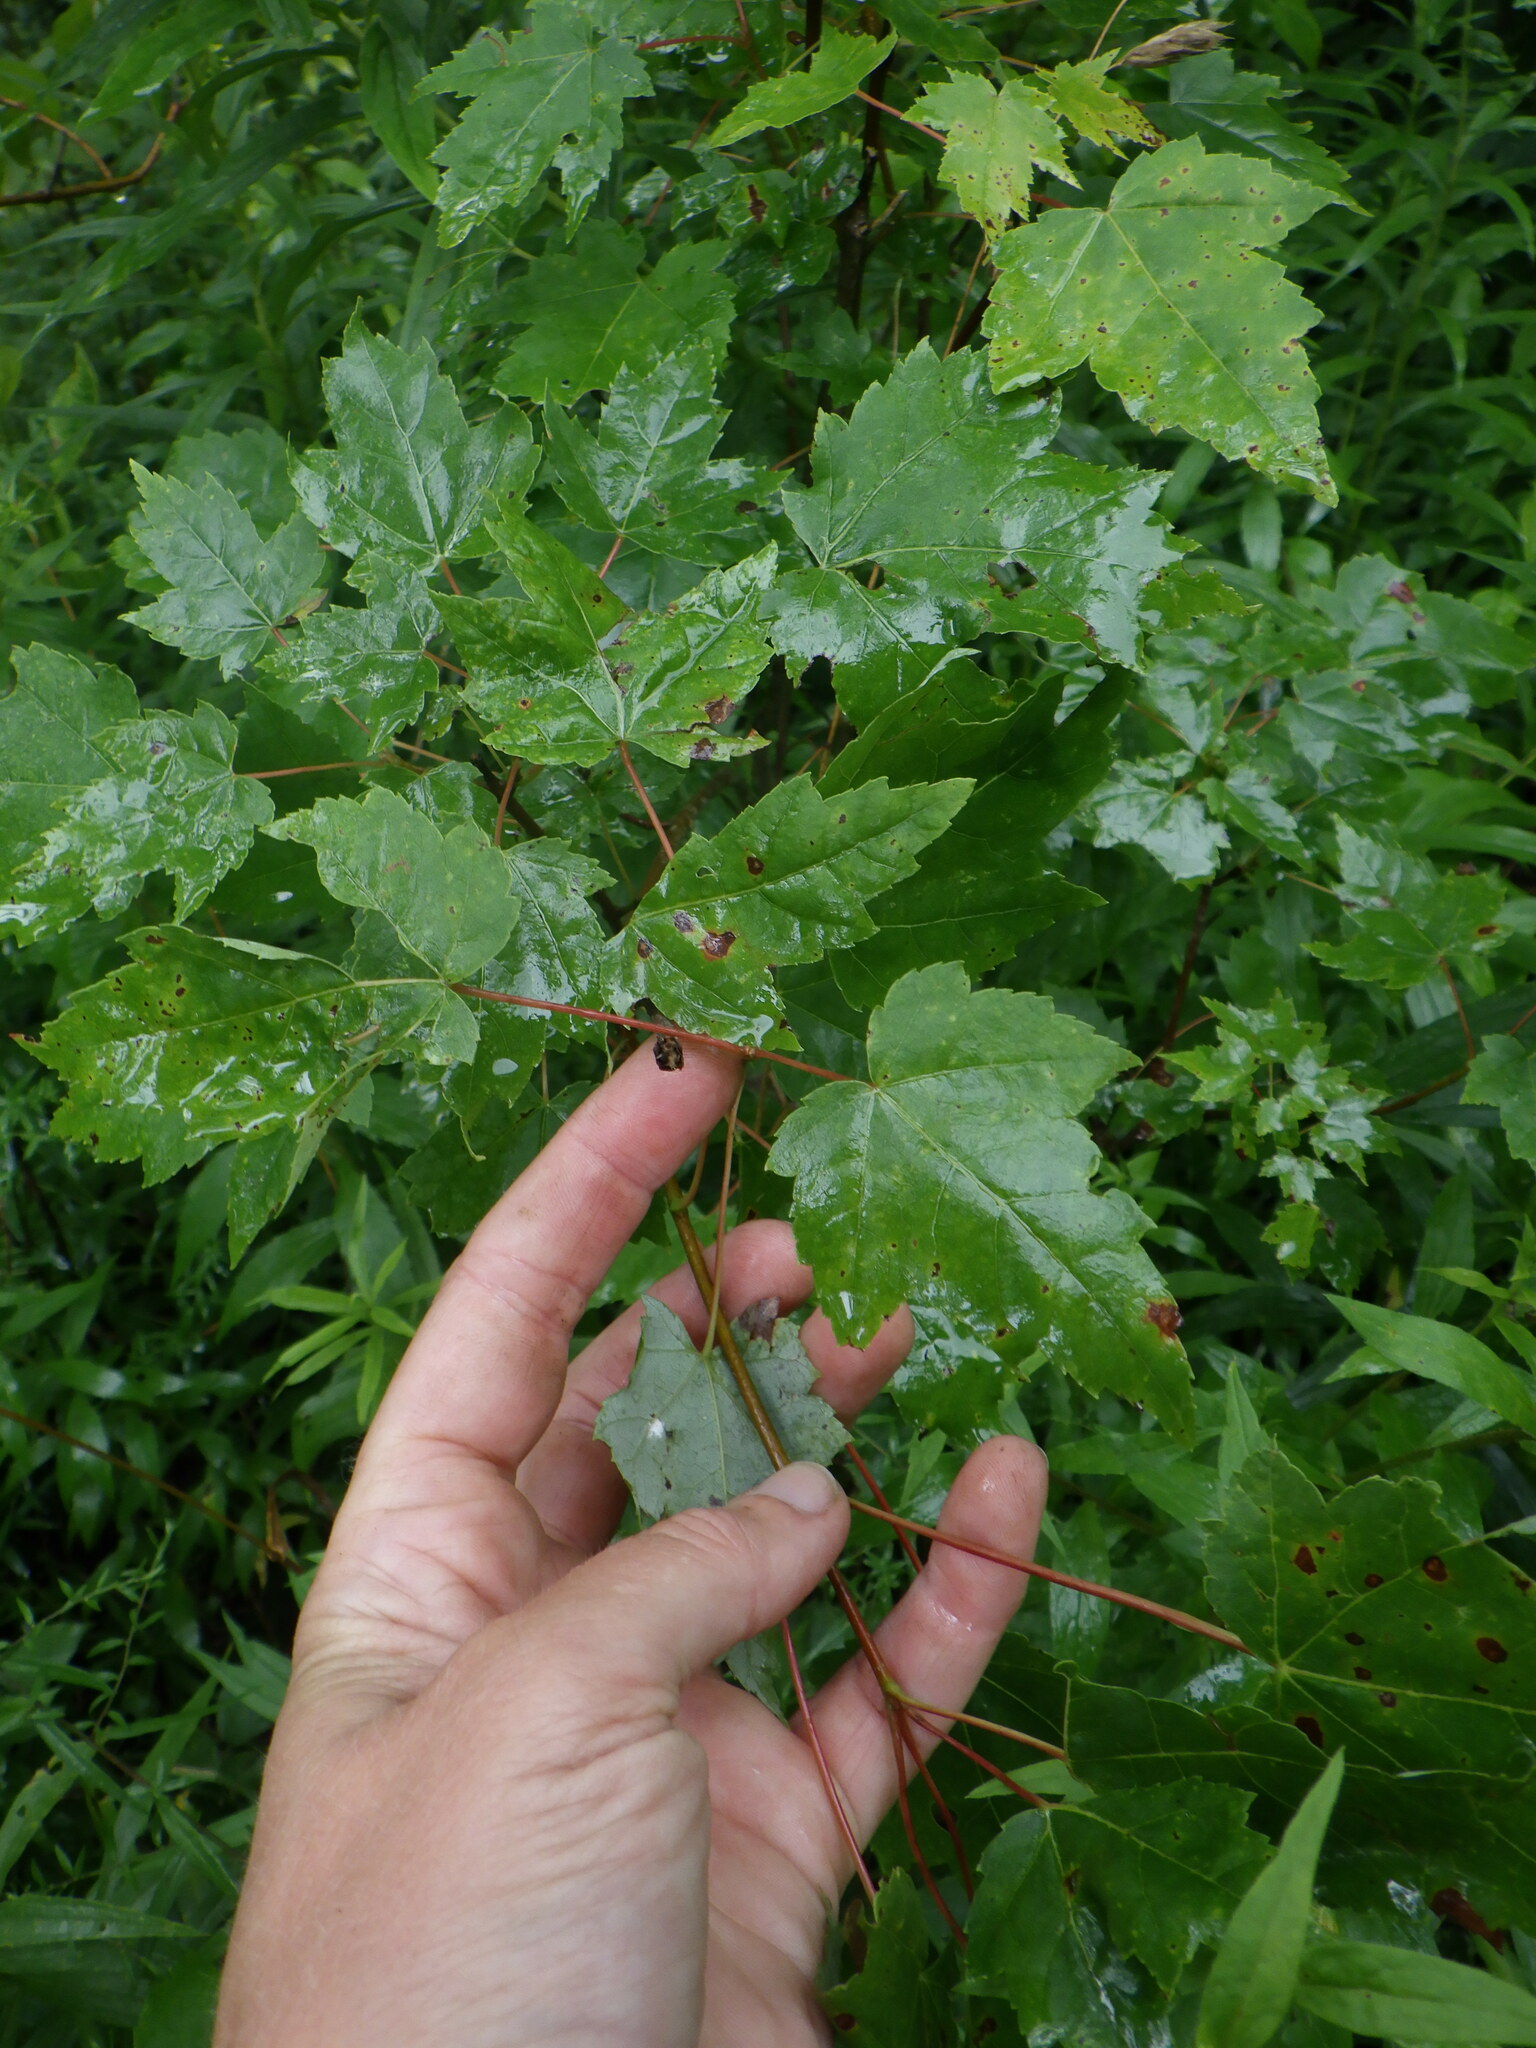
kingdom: Plantae
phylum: Tracheophyta
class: Magnoliopsida
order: Sapindales
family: Sapindaceae
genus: Acer
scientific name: Acer rubrum
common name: Red maple
